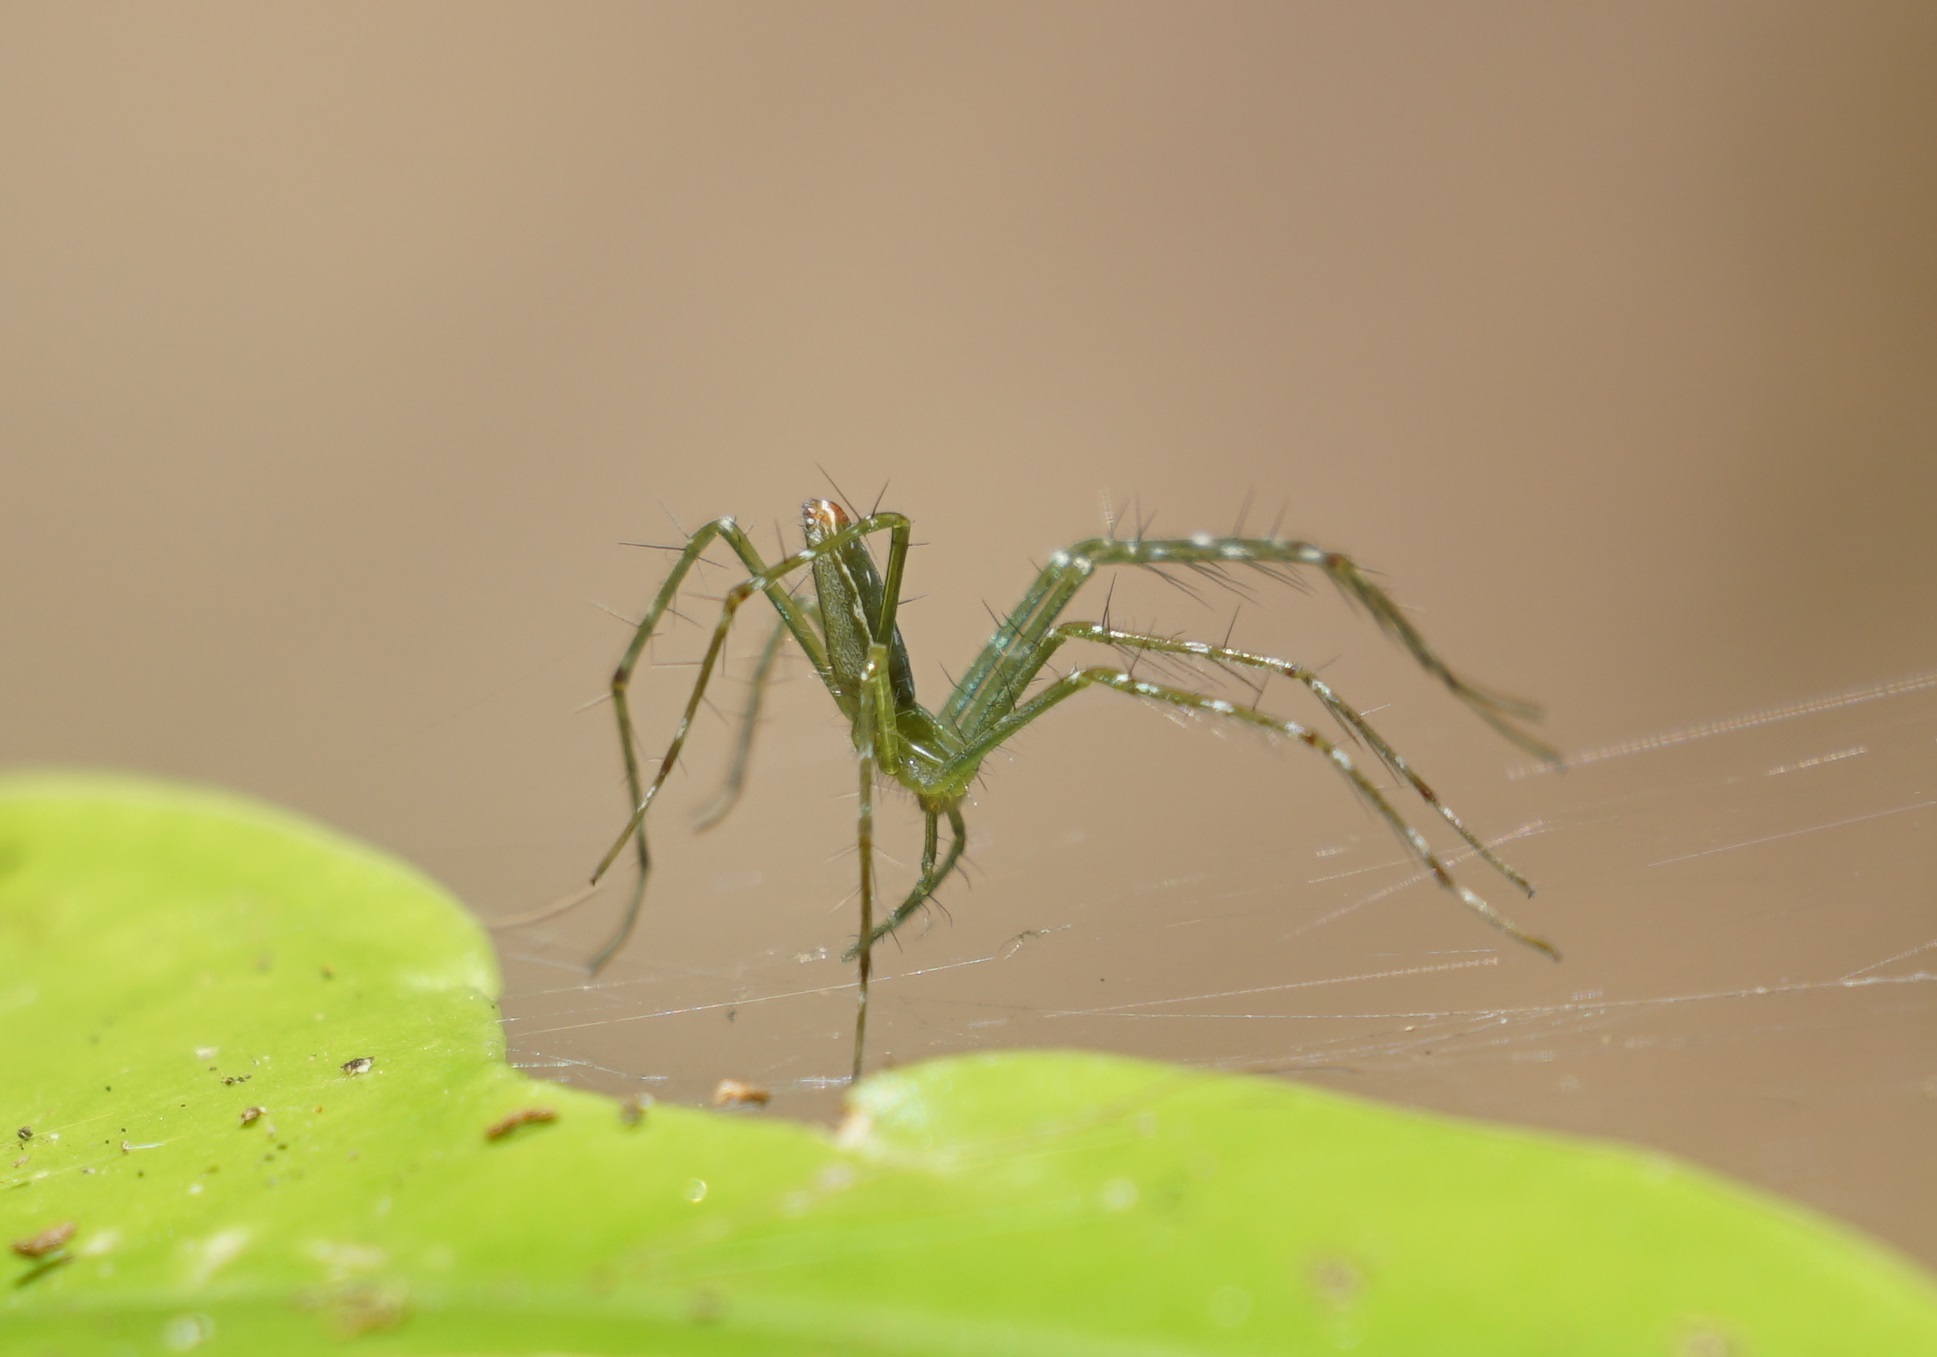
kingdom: Animalia
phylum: Arthropoda
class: Arachnida
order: Araneae
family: Pisauridae
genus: Hygropoda
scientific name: Hygropoda lineata
